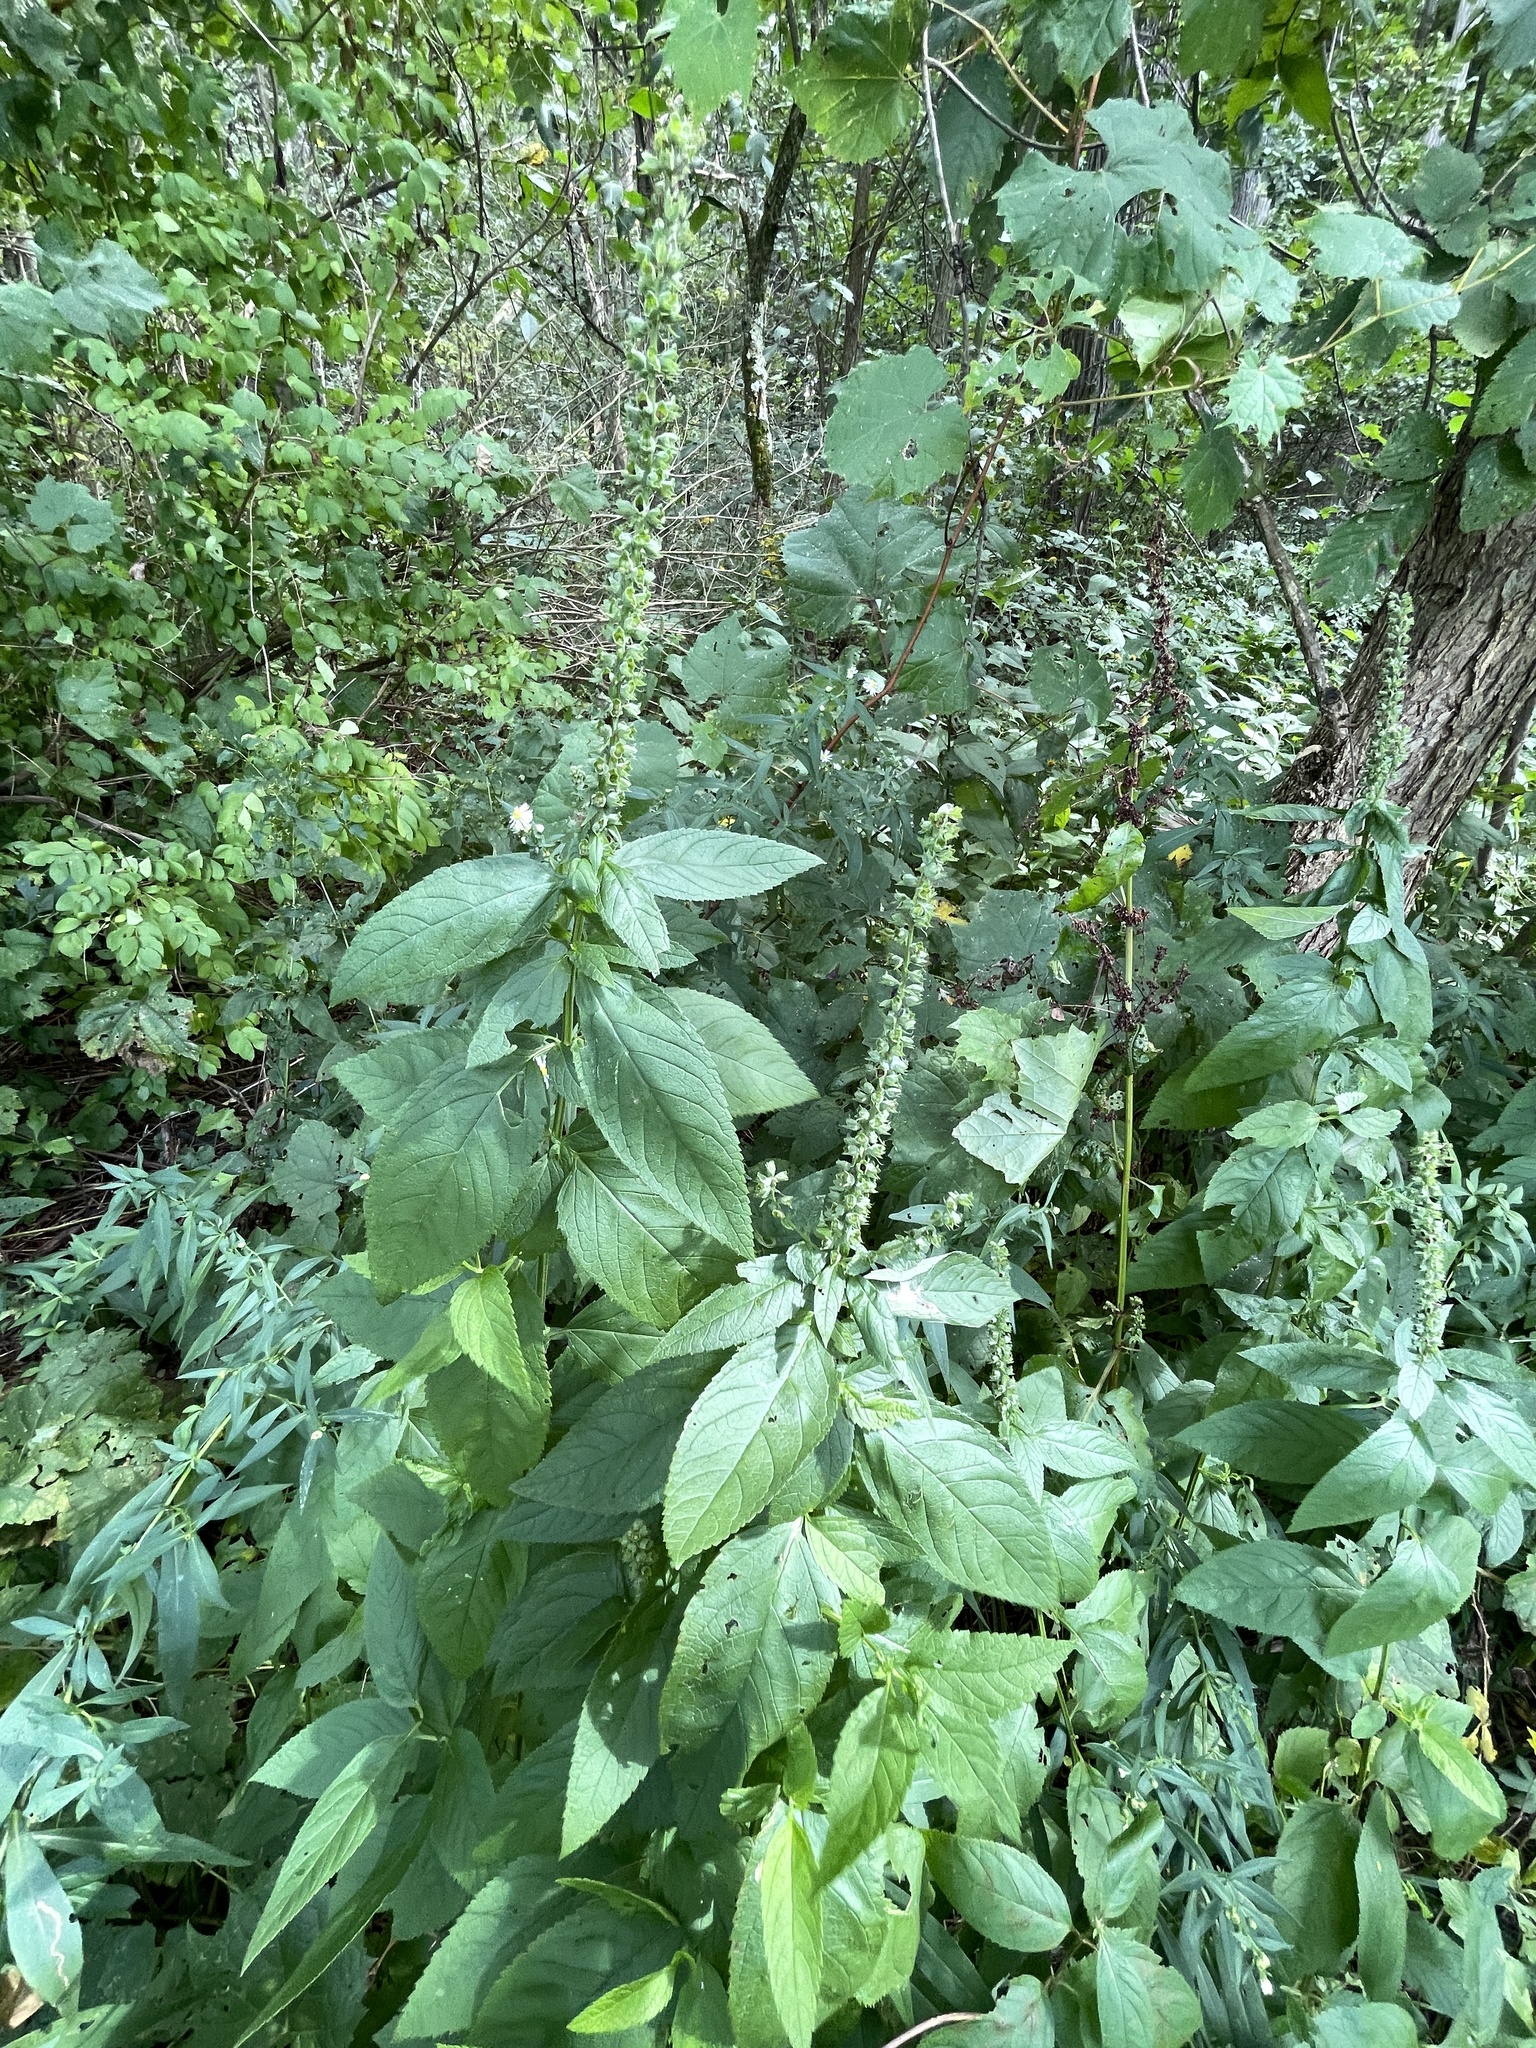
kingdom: Plantae
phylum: Tracheophyta
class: Magnoliopsida
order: Lamiales
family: Lamiaceae
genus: Teucrium
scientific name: Teucrium canadense
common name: American germander
